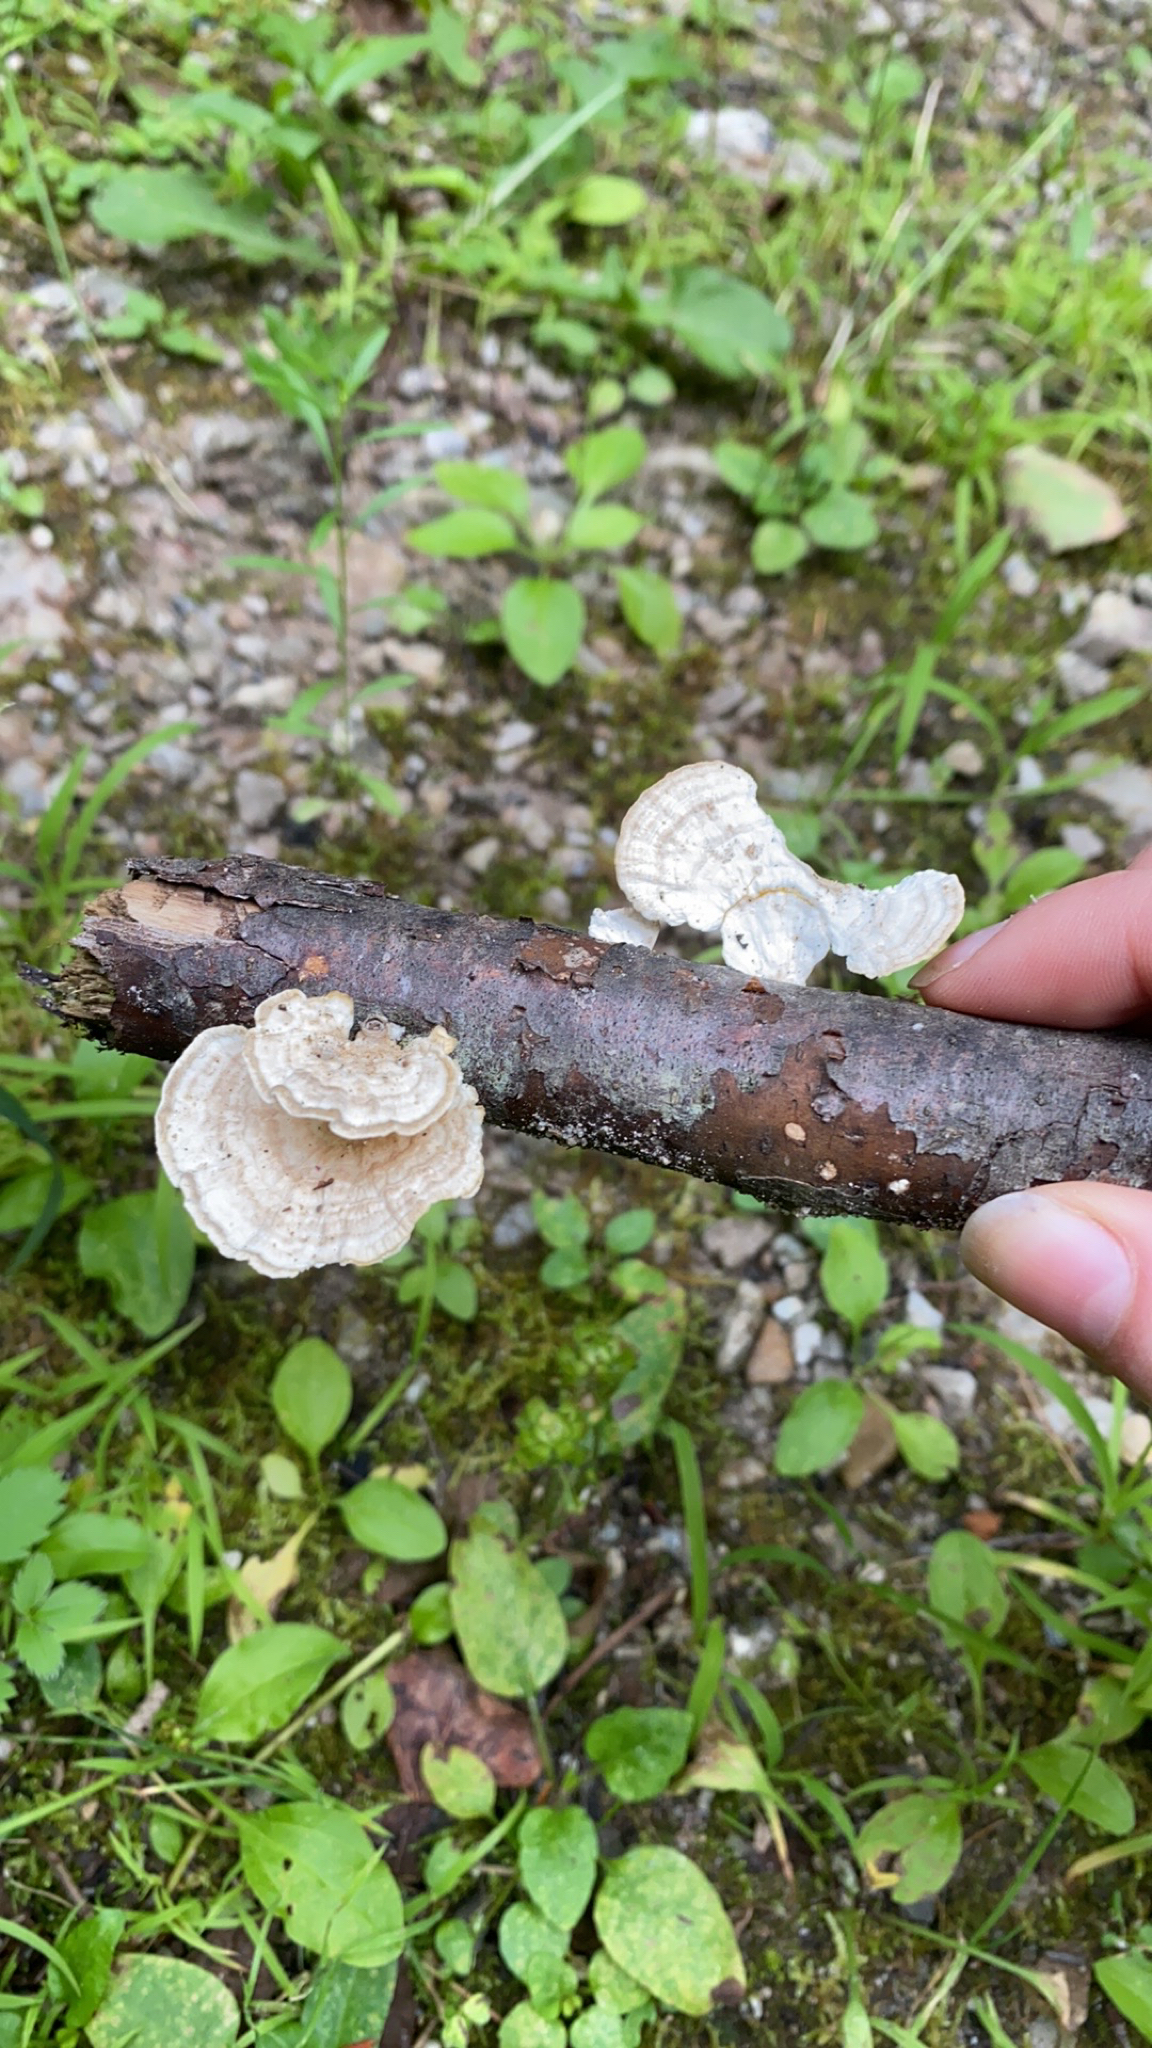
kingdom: Fungi
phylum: Basidiomycota
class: Agaricomycetes
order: Polyporales
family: Polyporaceae
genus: Poronidulus
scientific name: Poronidulus conchifer
